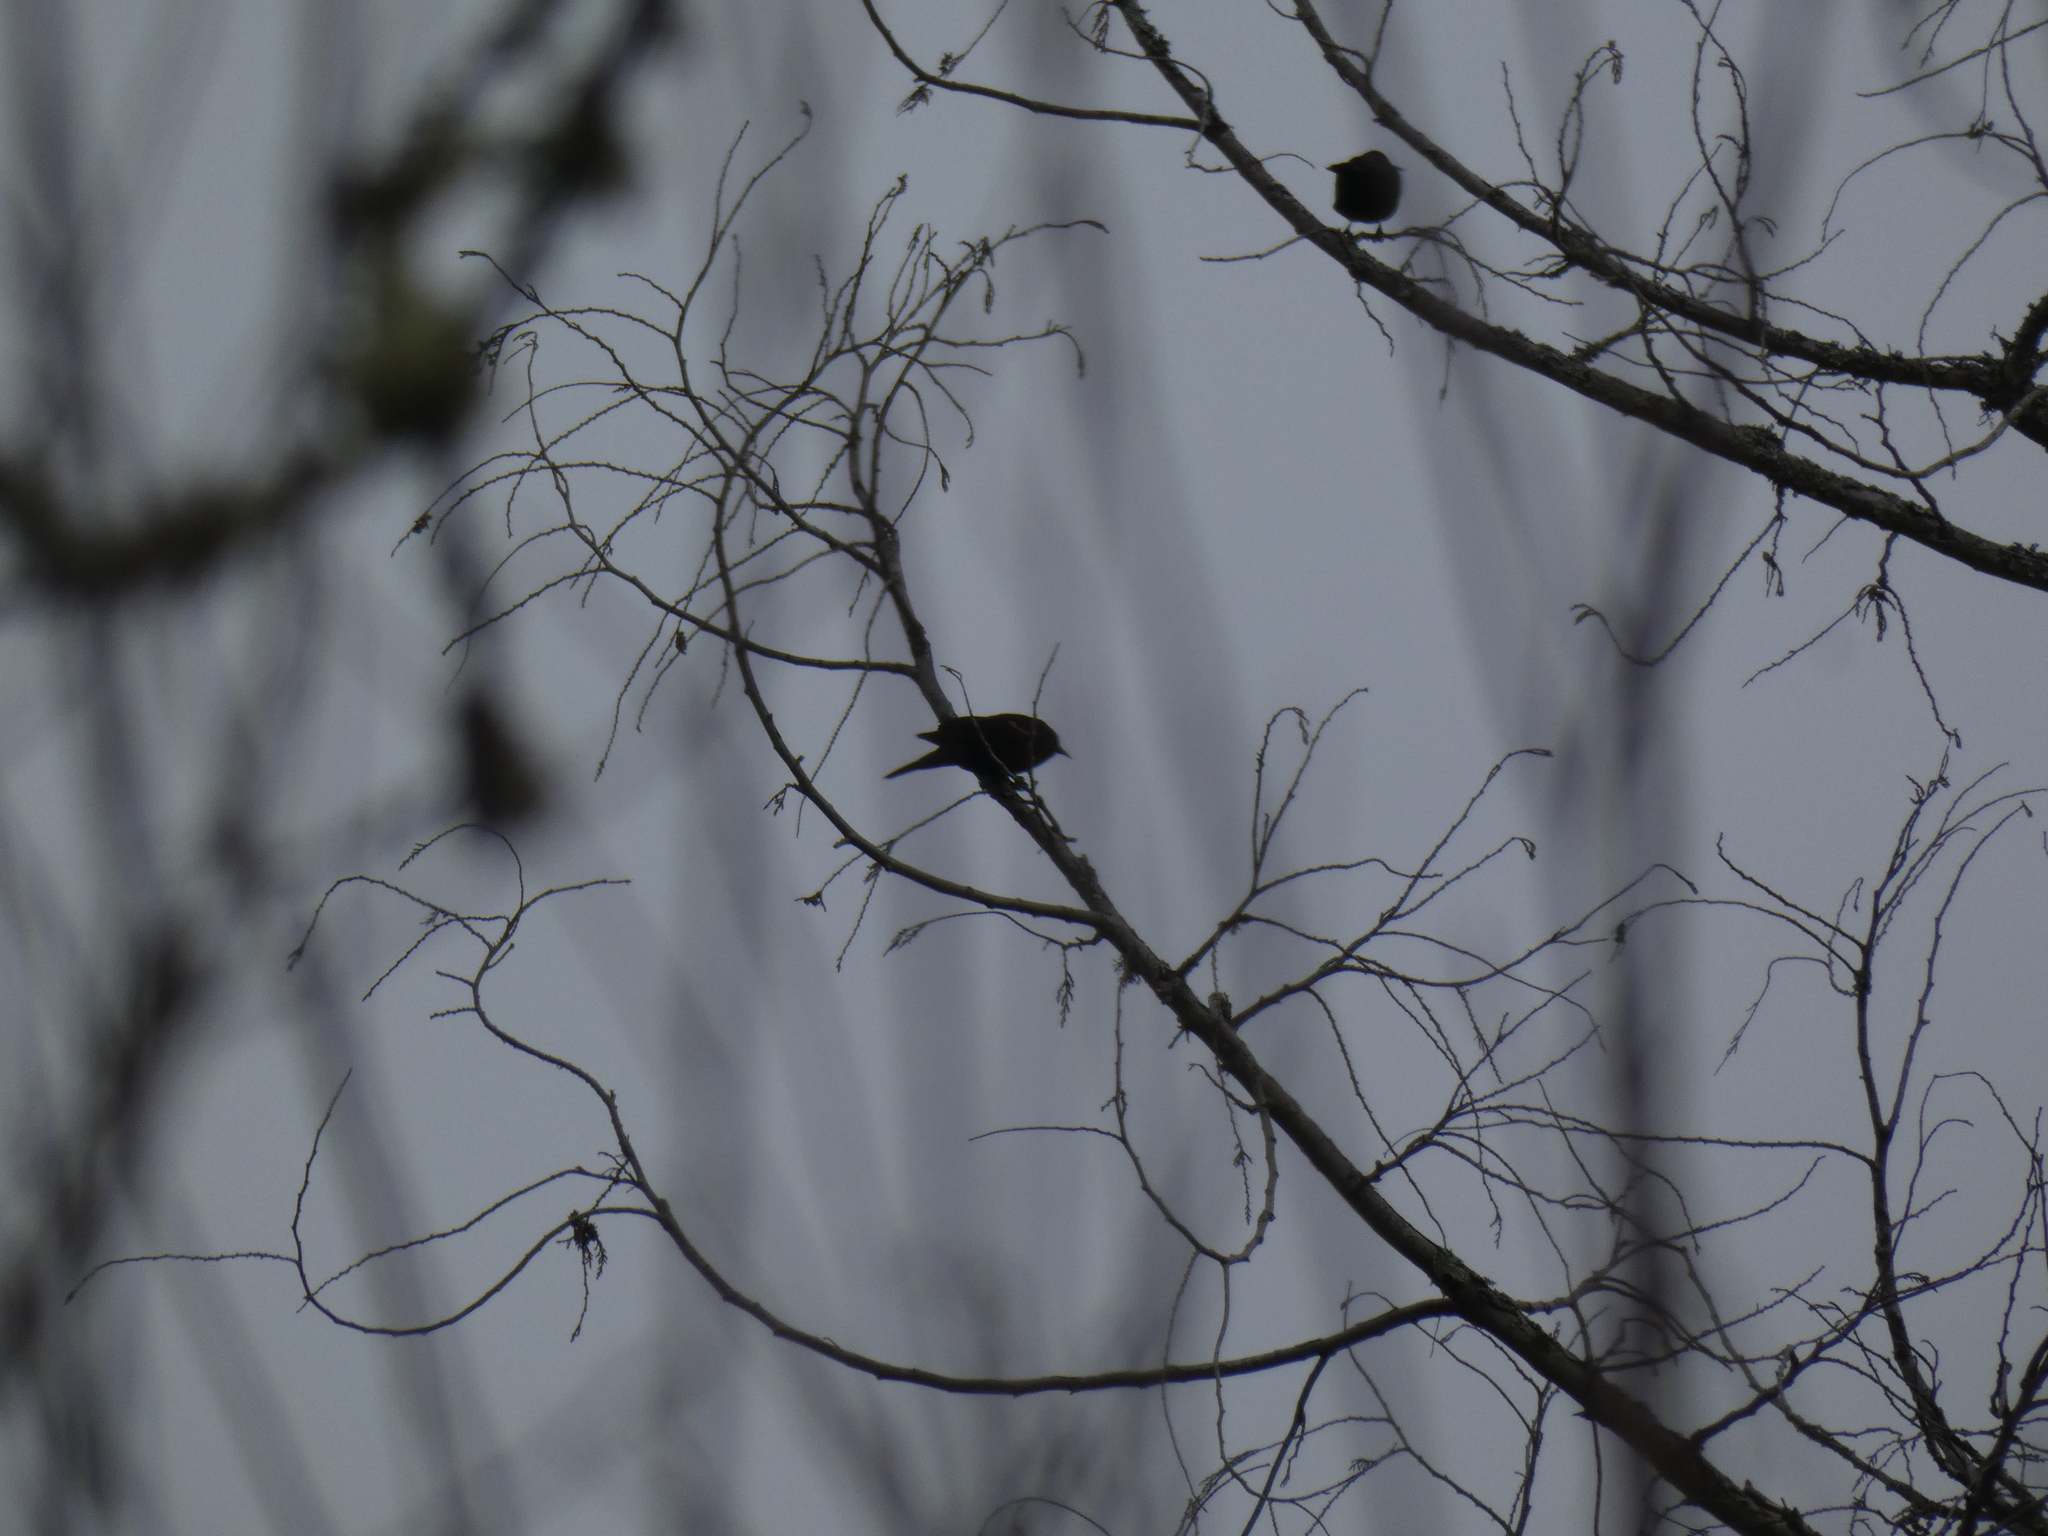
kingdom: Animalia
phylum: Chordata
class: Aves
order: Passeriformes
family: Icteridae
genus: Agelaius
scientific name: Agelaius phoeniceus
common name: Red-winged blackbird
